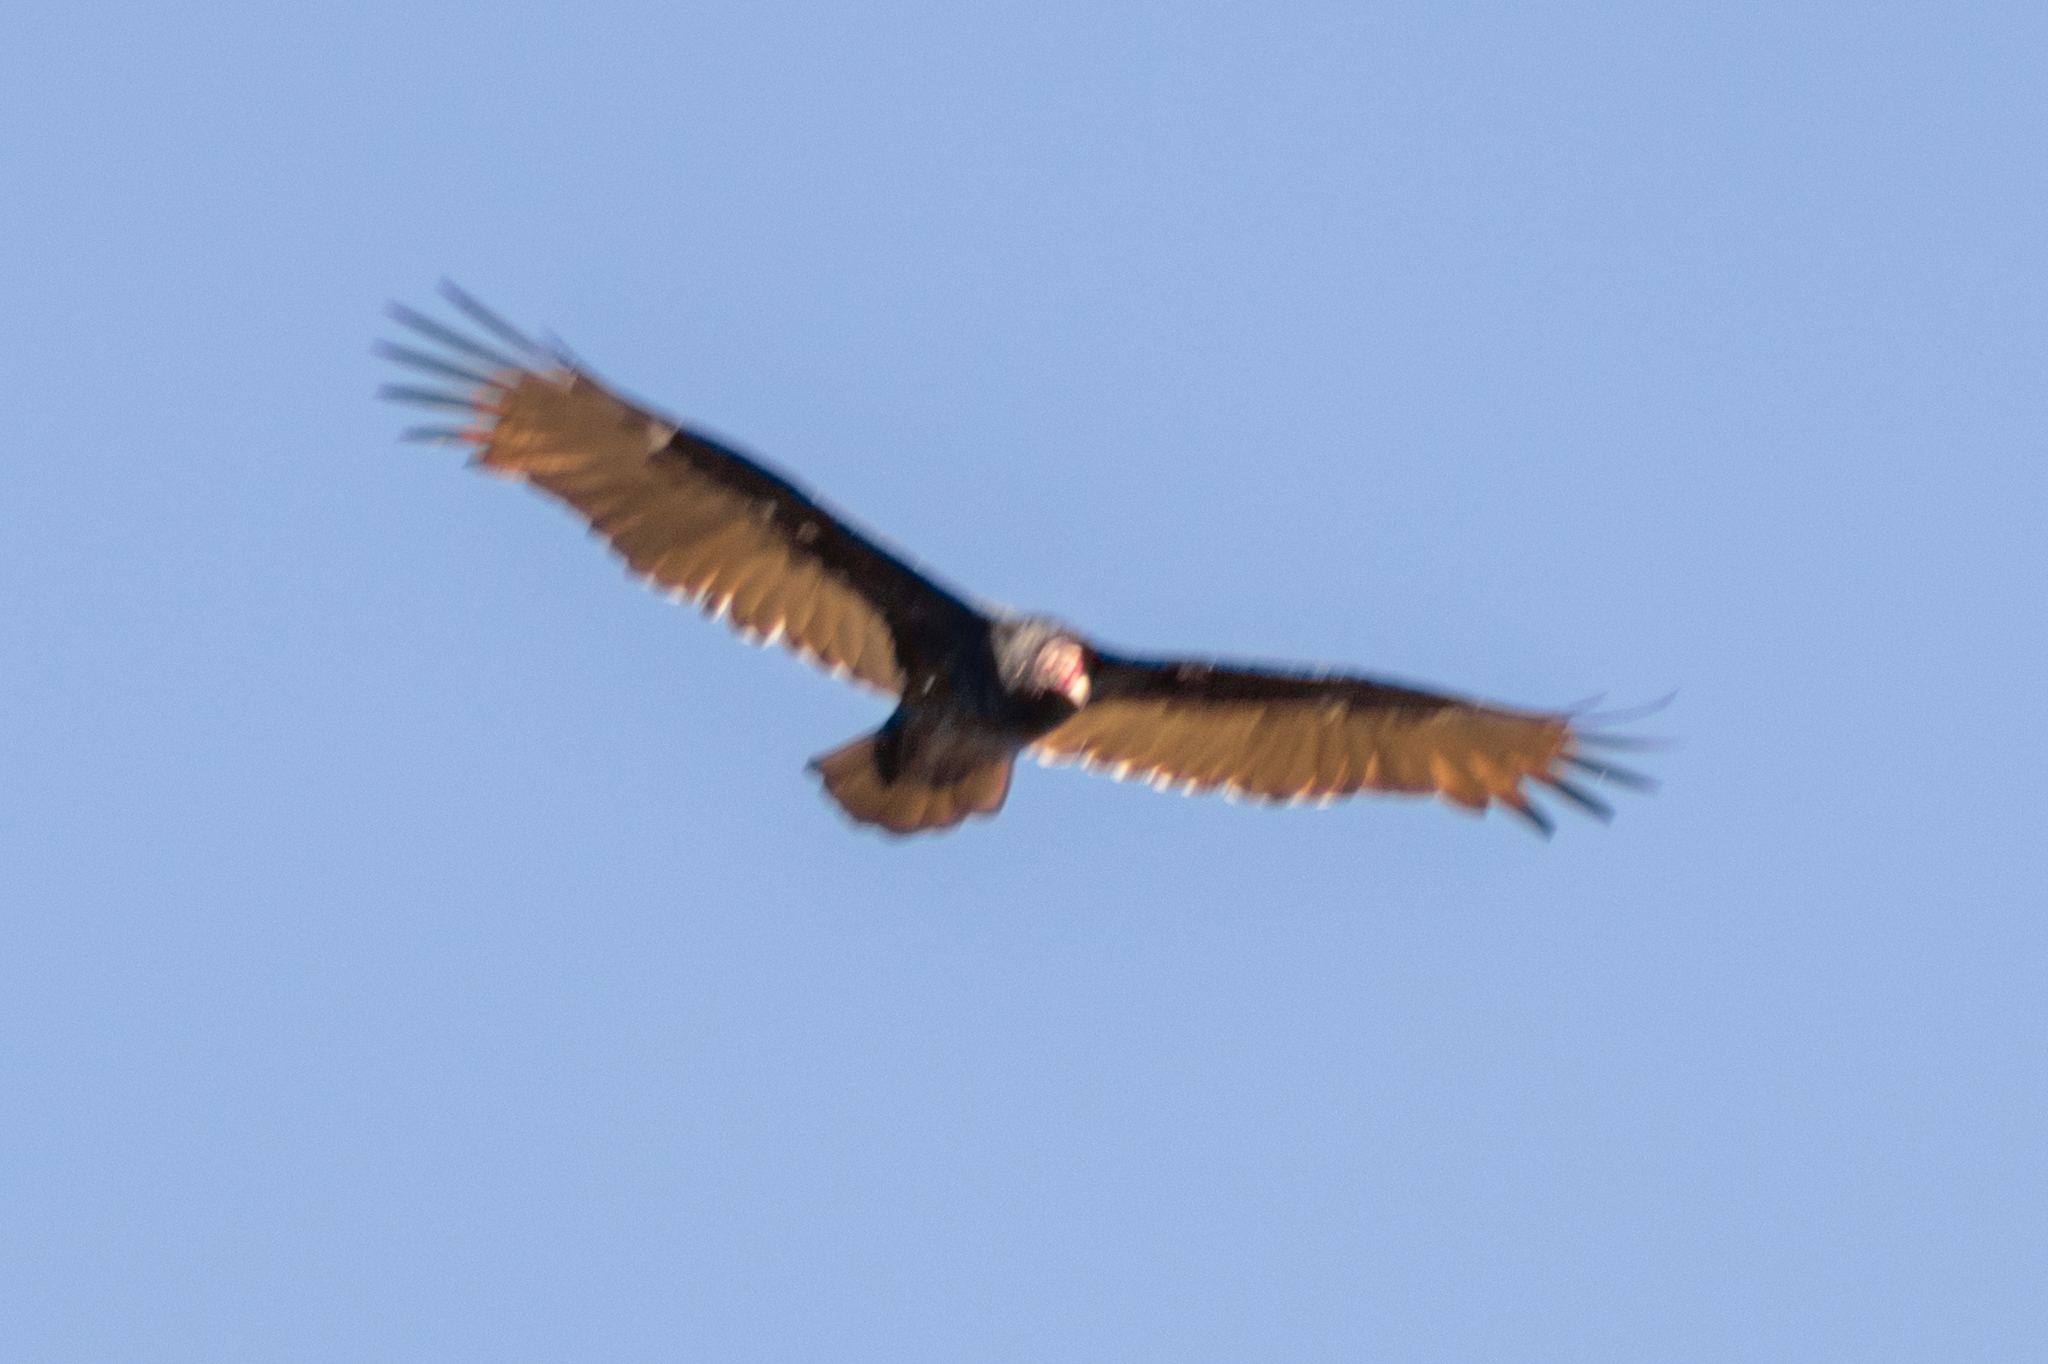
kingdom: Animalia
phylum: Chordata
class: Aves
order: Accipitriformes
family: Cathartidae
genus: Cathartes
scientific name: Cathartes aura
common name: Turkey vulture
